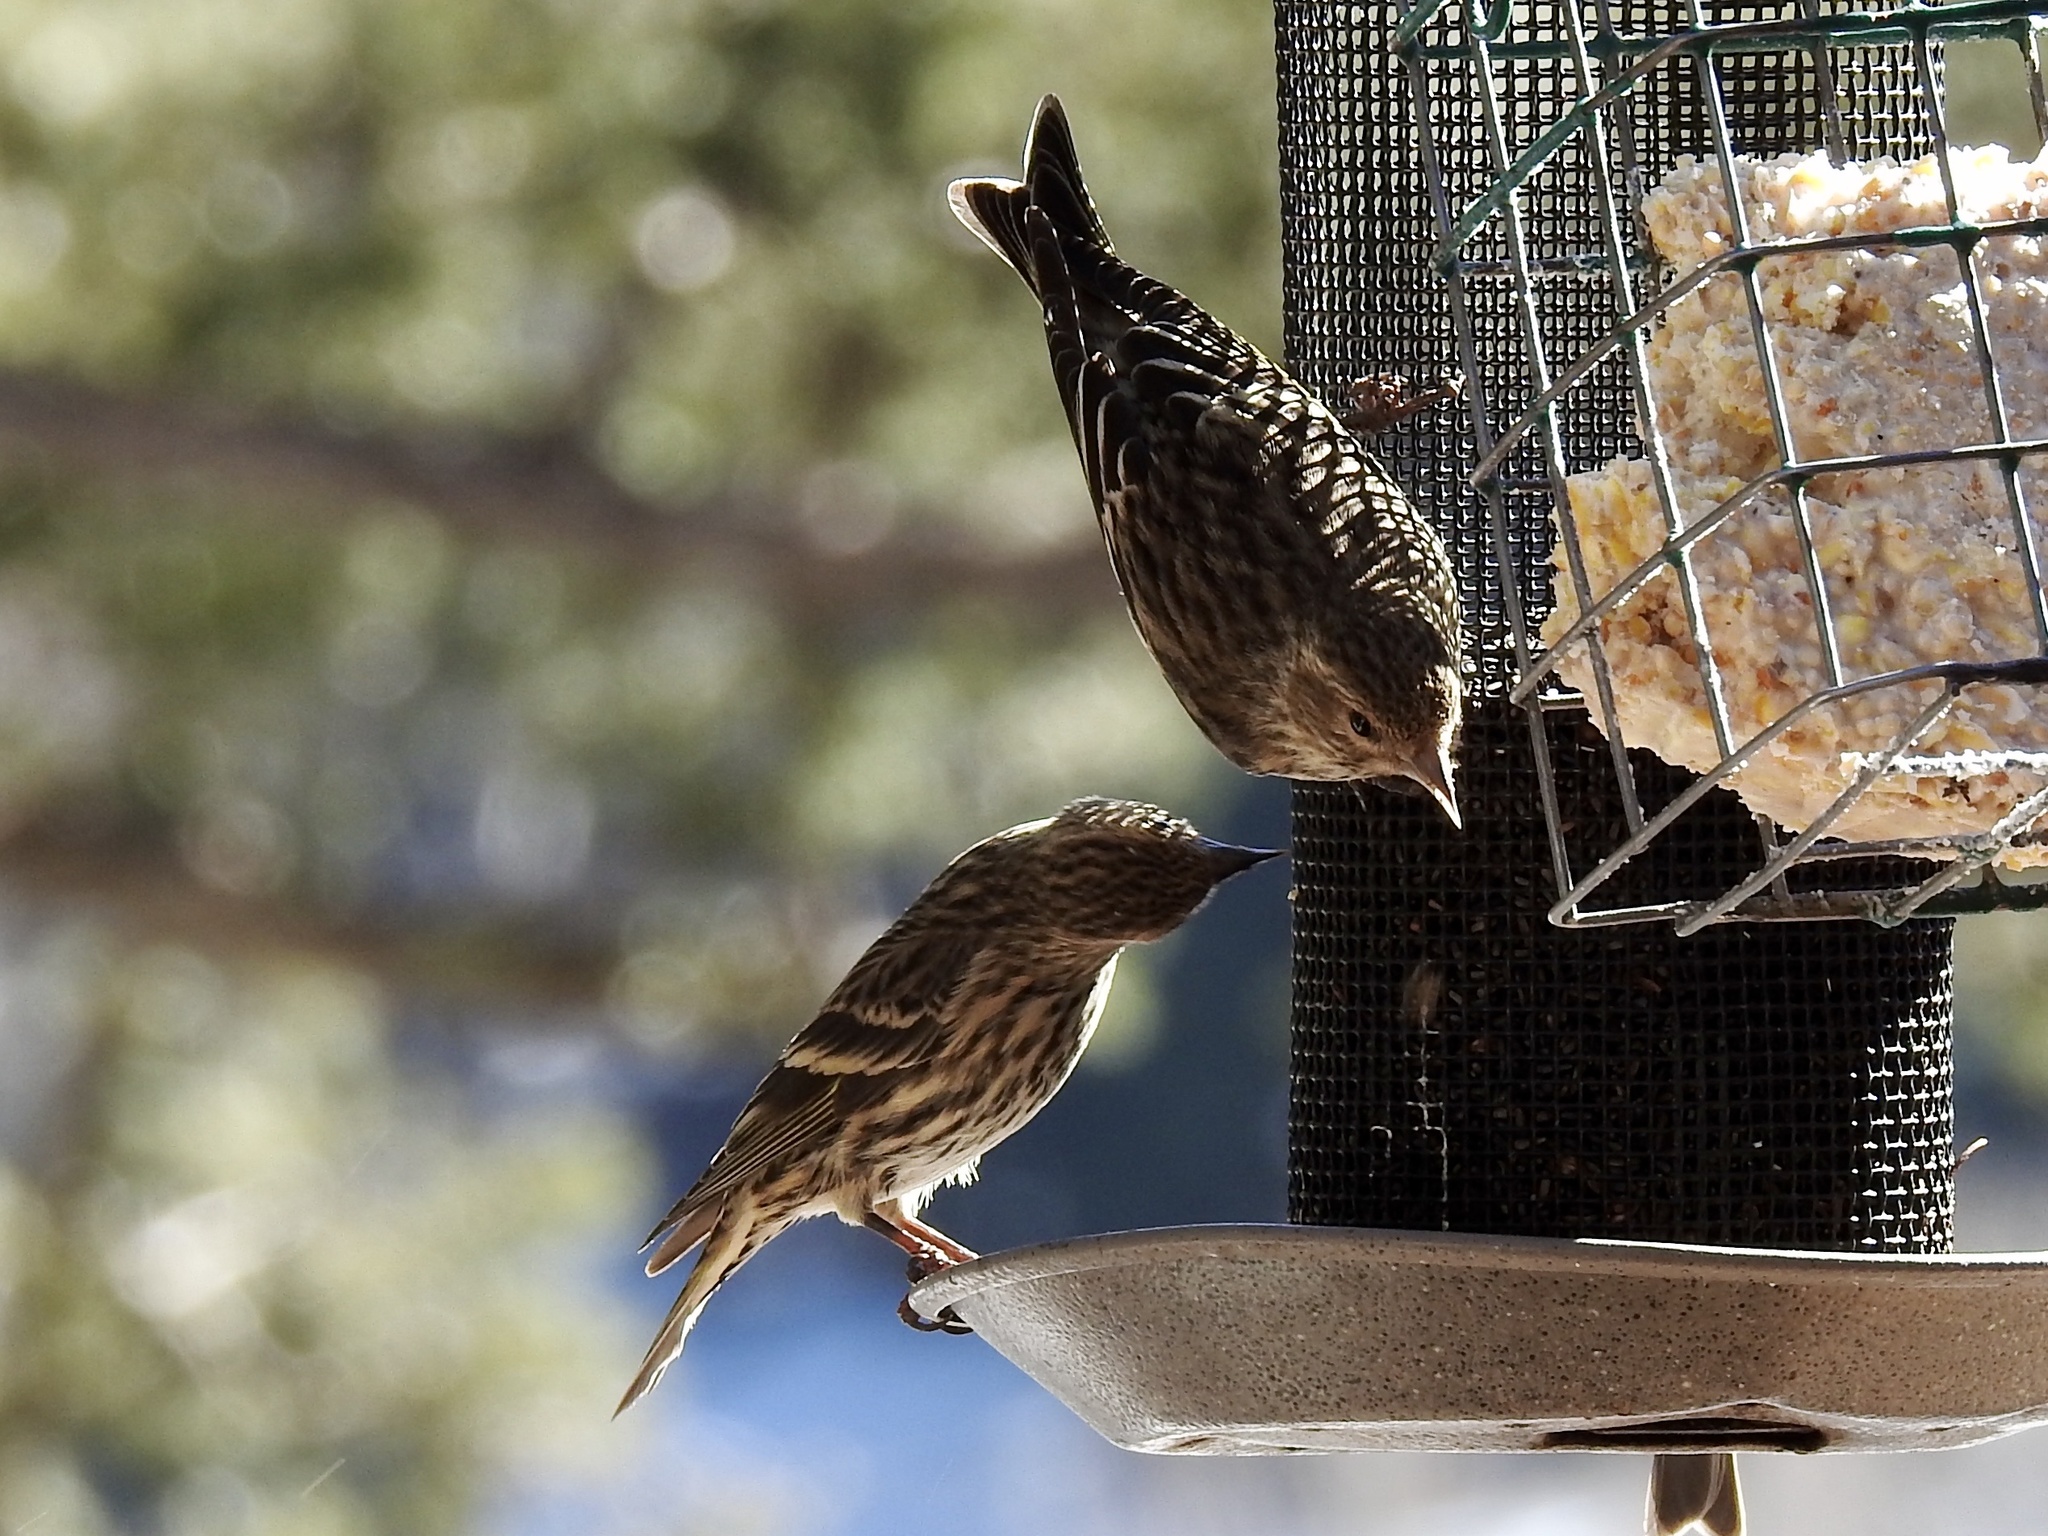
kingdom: Animalia
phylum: Chordata
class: Aves
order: Passeriformes
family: Fringillidae
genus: Spinus
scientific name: Spinus pinus
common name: Pine siskin
